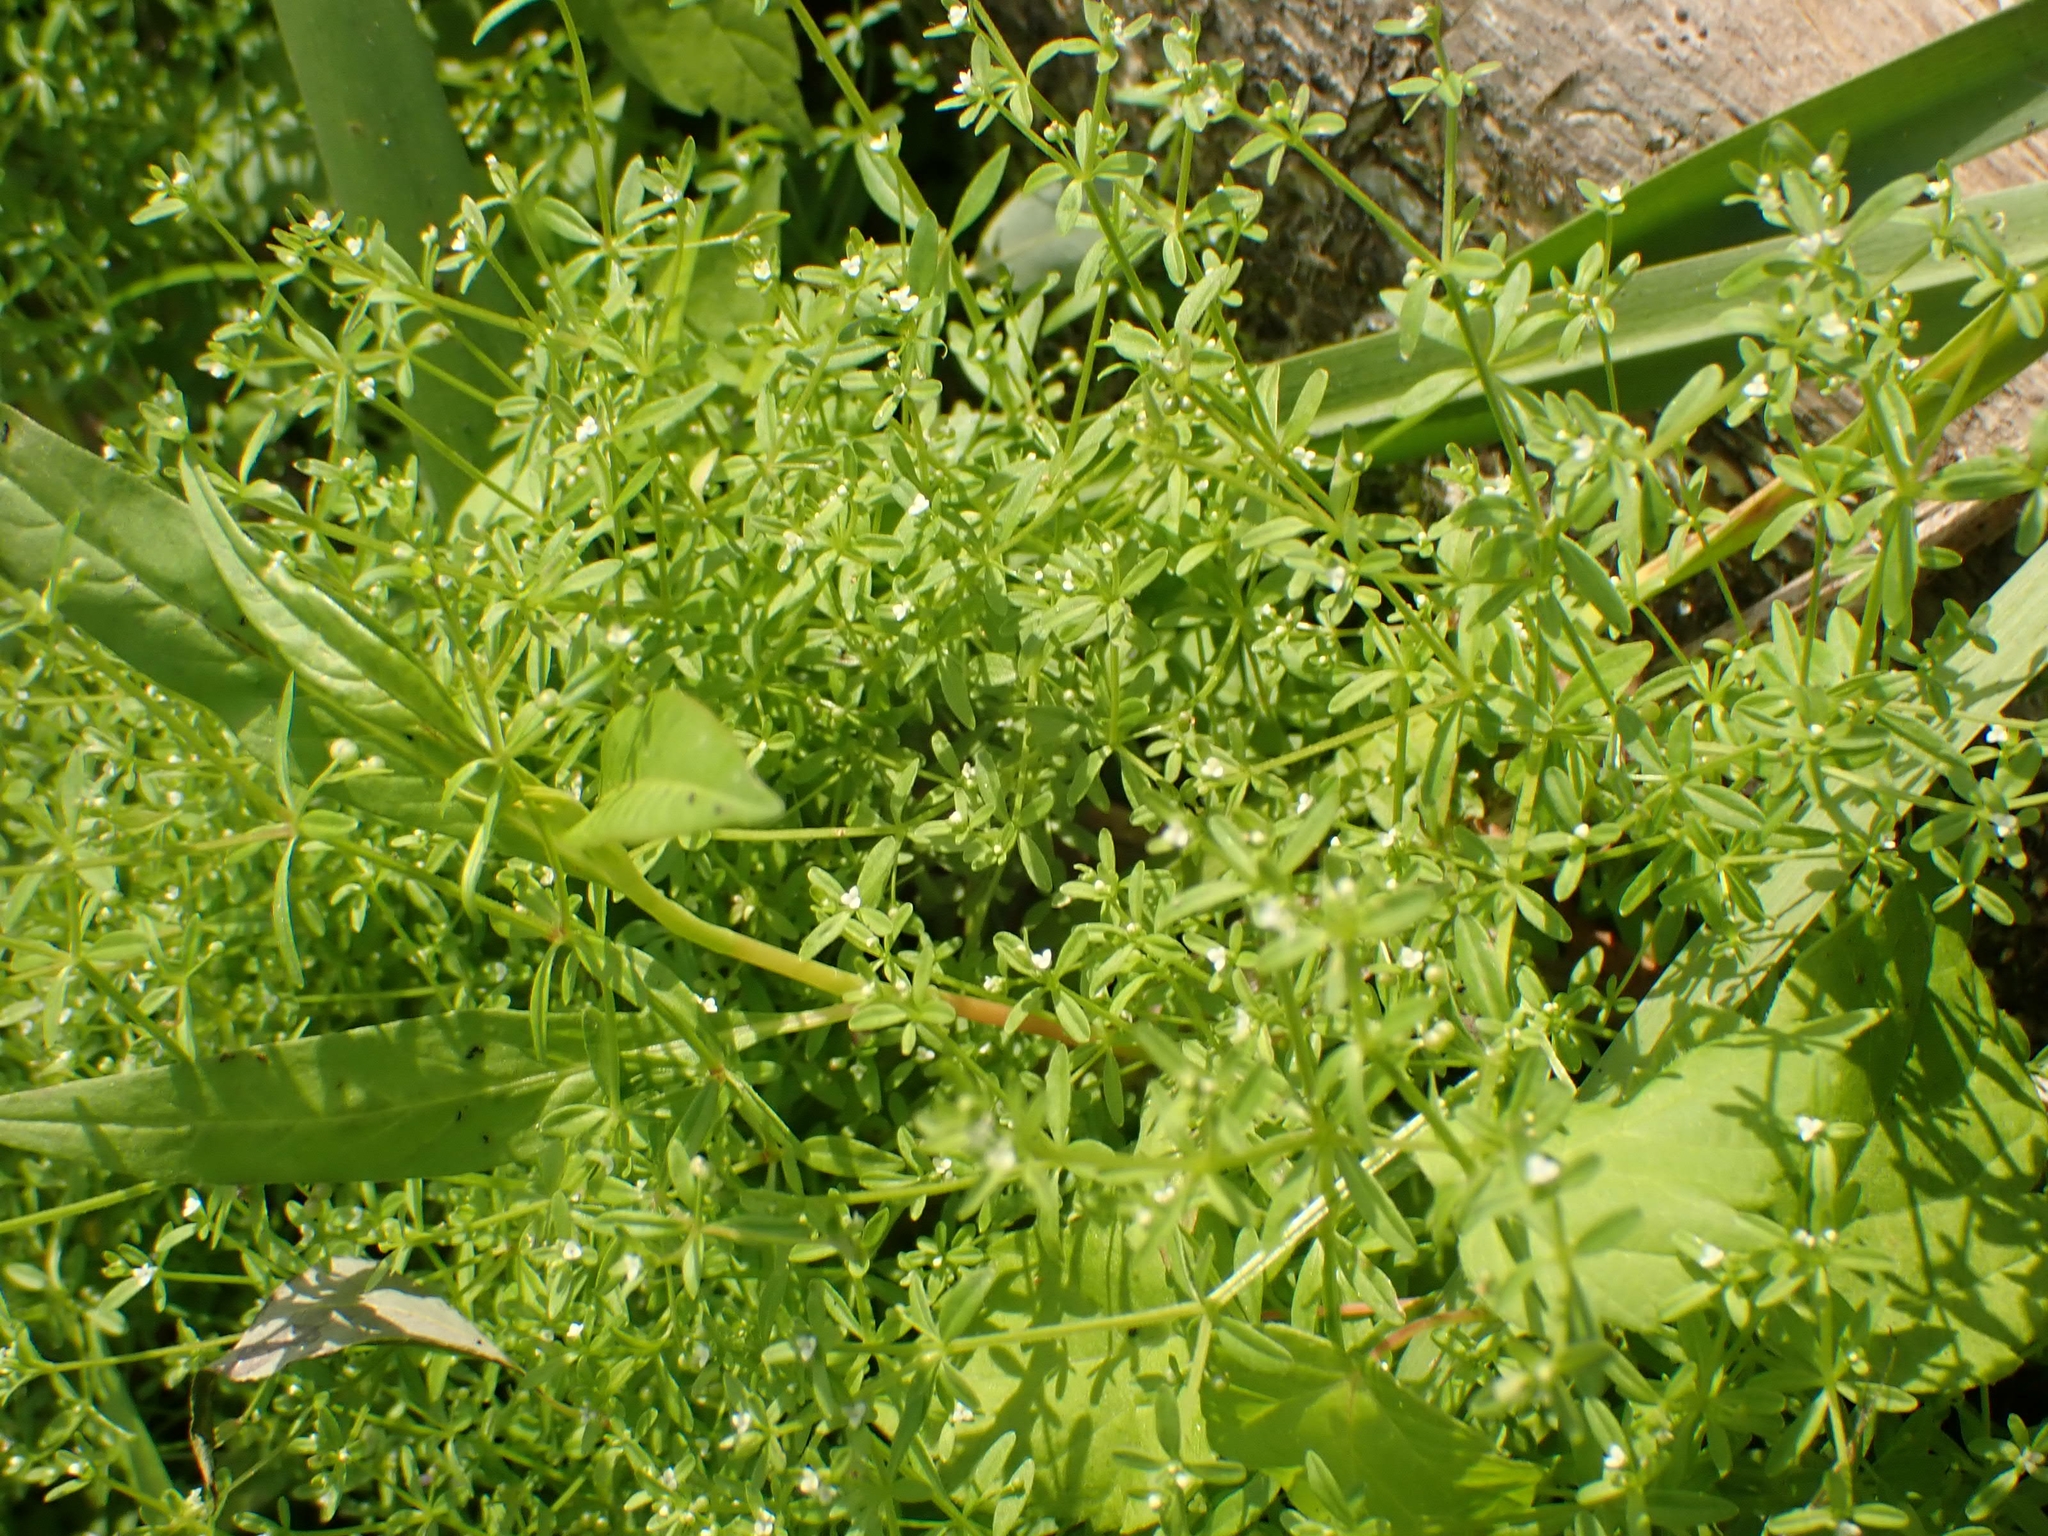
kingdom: Plantae
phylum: Tracheophyta
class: Magnoliopsida
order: Gentianales
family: Rubiaceae
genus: Galium
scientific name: Galium trifidum
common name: Small bedstraw
